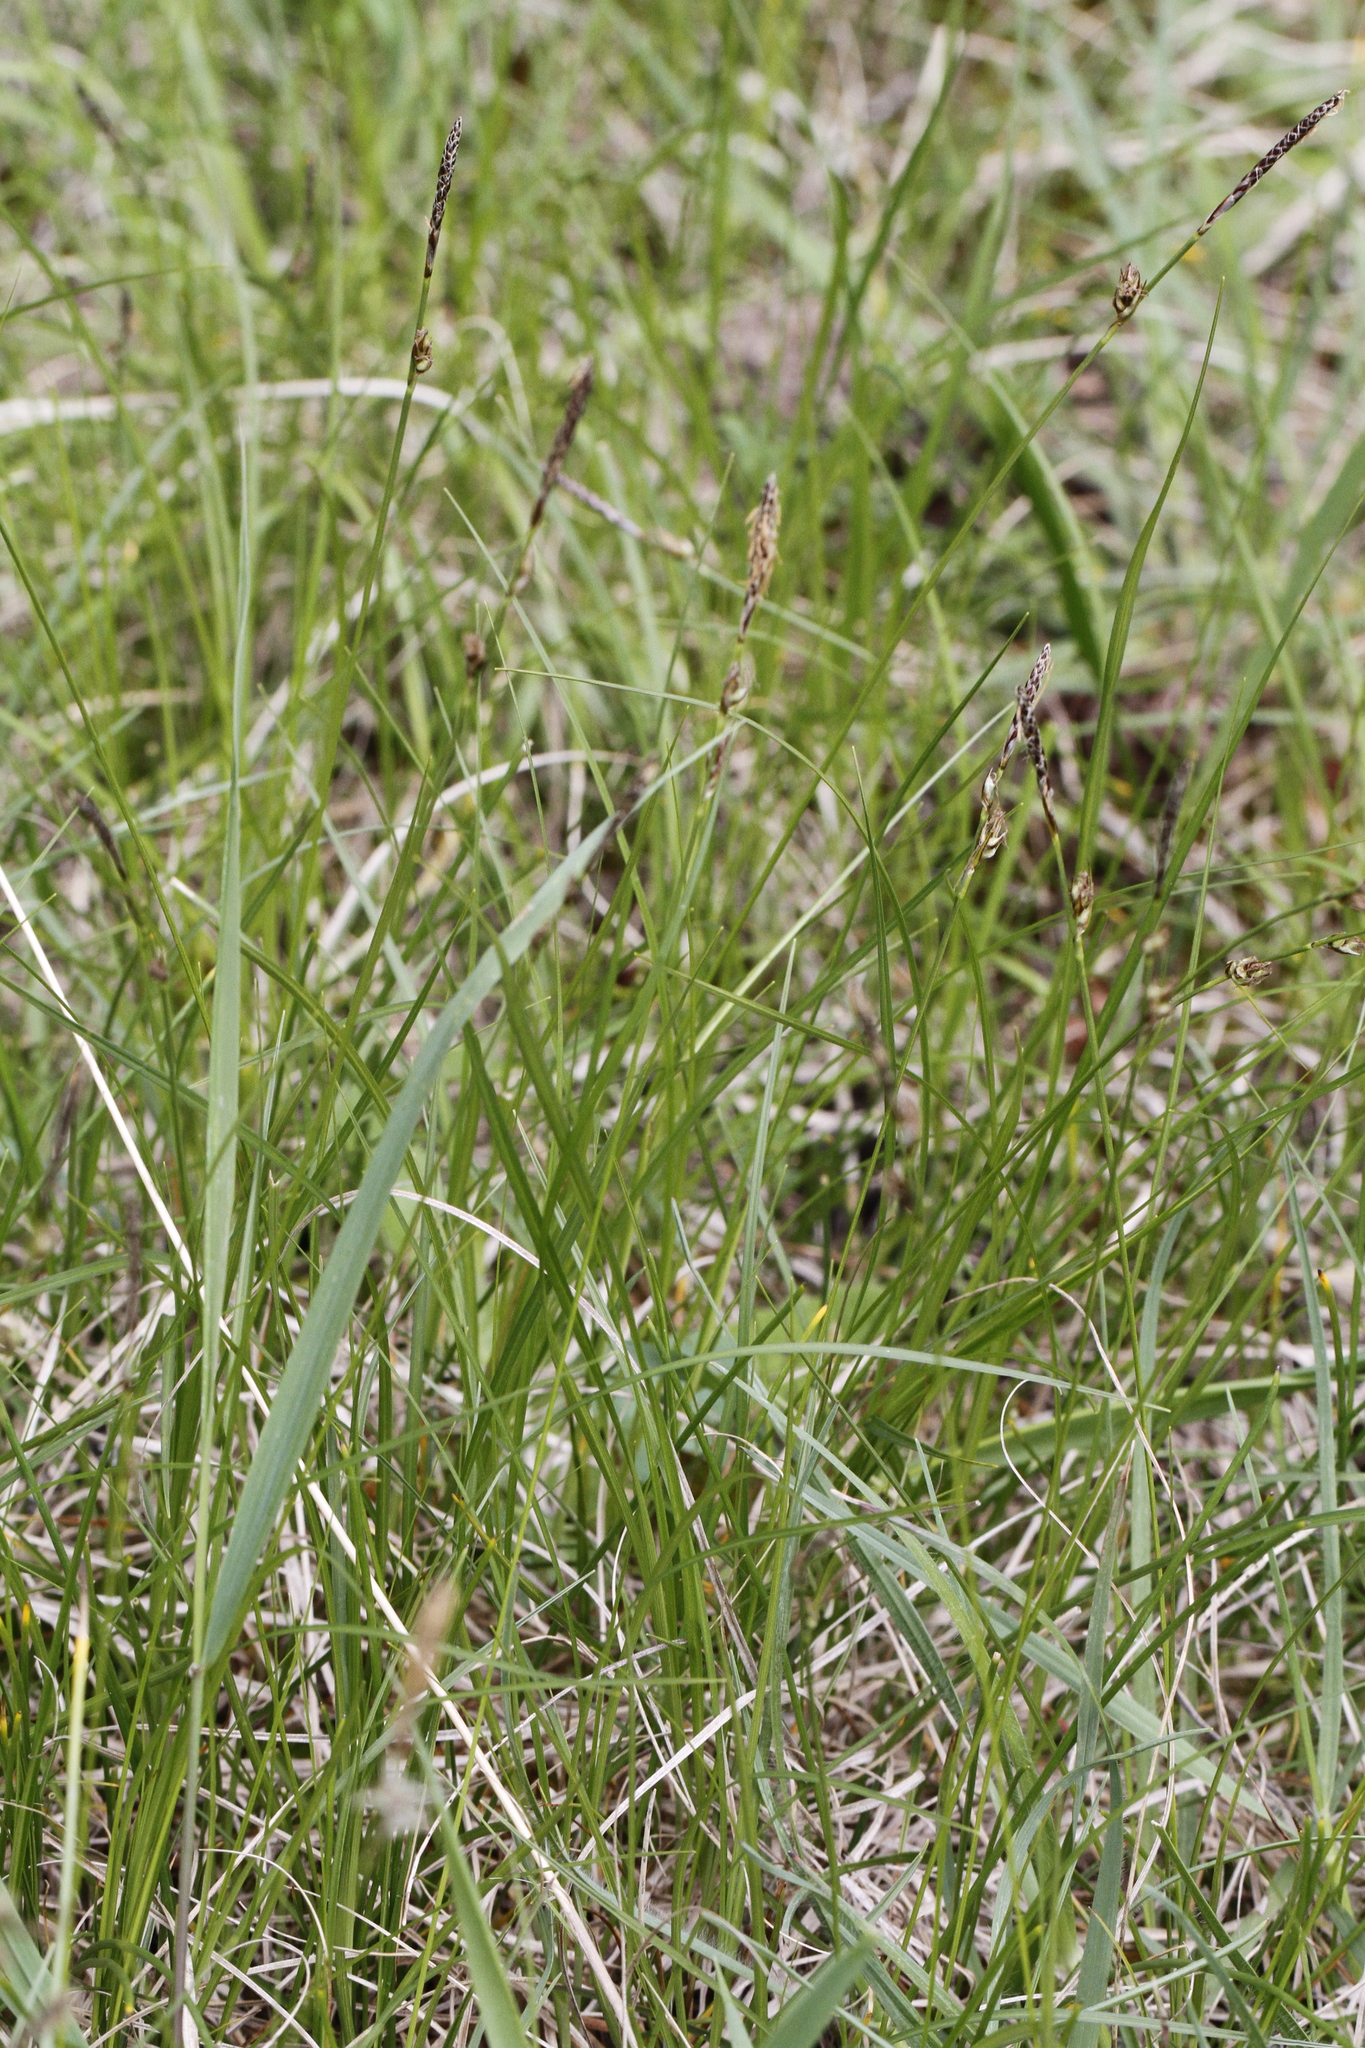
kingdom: Plantae
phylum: Tracheophyta
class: Liliopsida
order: Poales
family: Cyperaceae
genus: Carex
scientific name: Carex inops
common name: Long-stolon sedge
